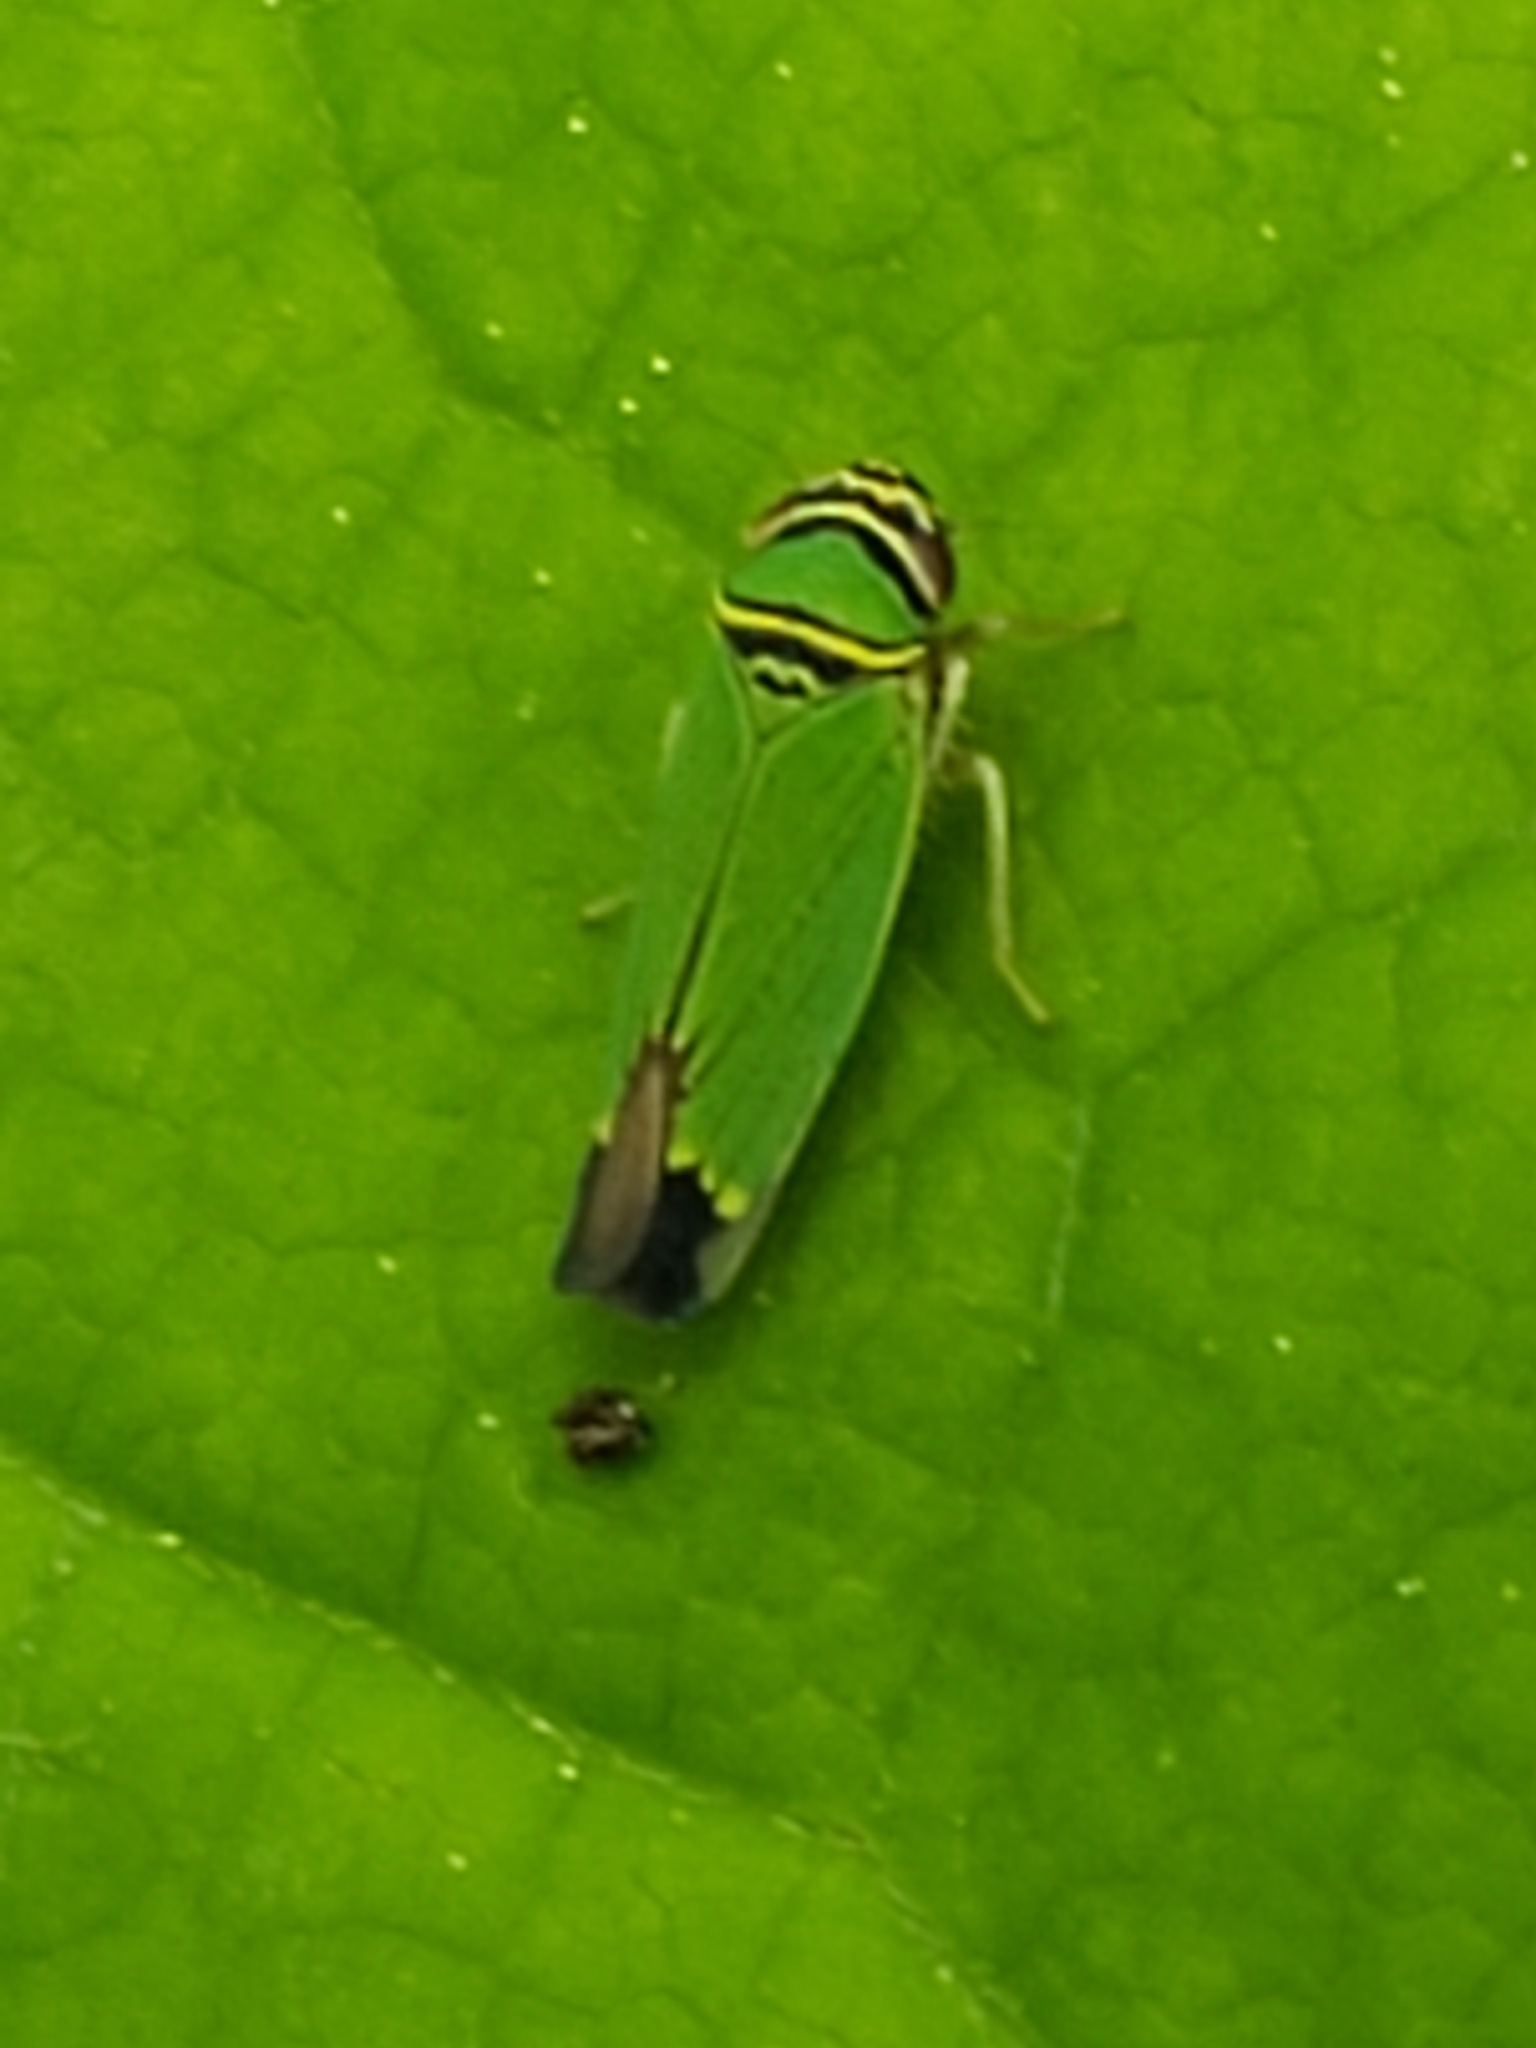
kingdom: Animalia
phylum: Arthropoda
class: Insecta
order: Hemiptera
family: Cicadellidae
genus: Tylozygus
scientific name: Tylozygus geometricus
